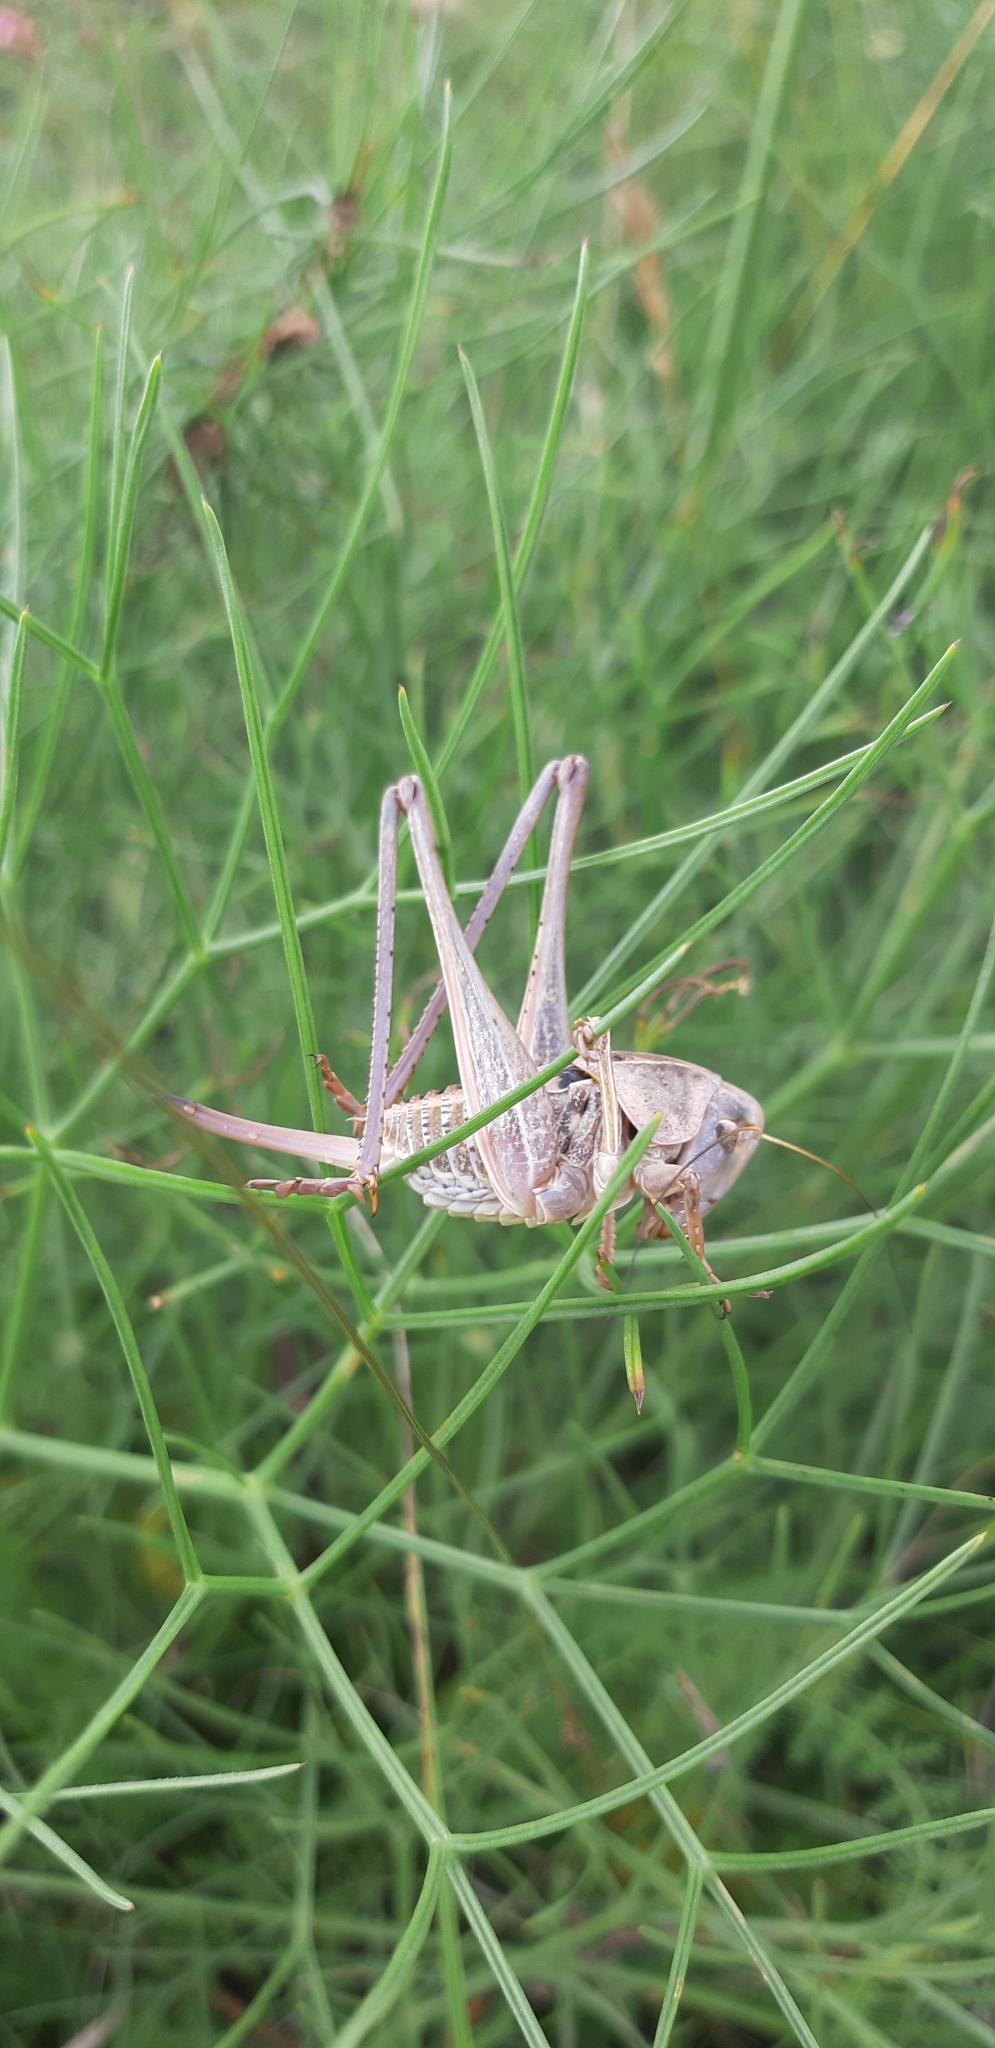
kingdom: Animalia
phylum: Arthropoda
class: Insecta
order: Orthoptera
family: Tettigoniidae
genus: Decticus
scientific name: Decticus loudoni
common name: Apulian wart-biter
